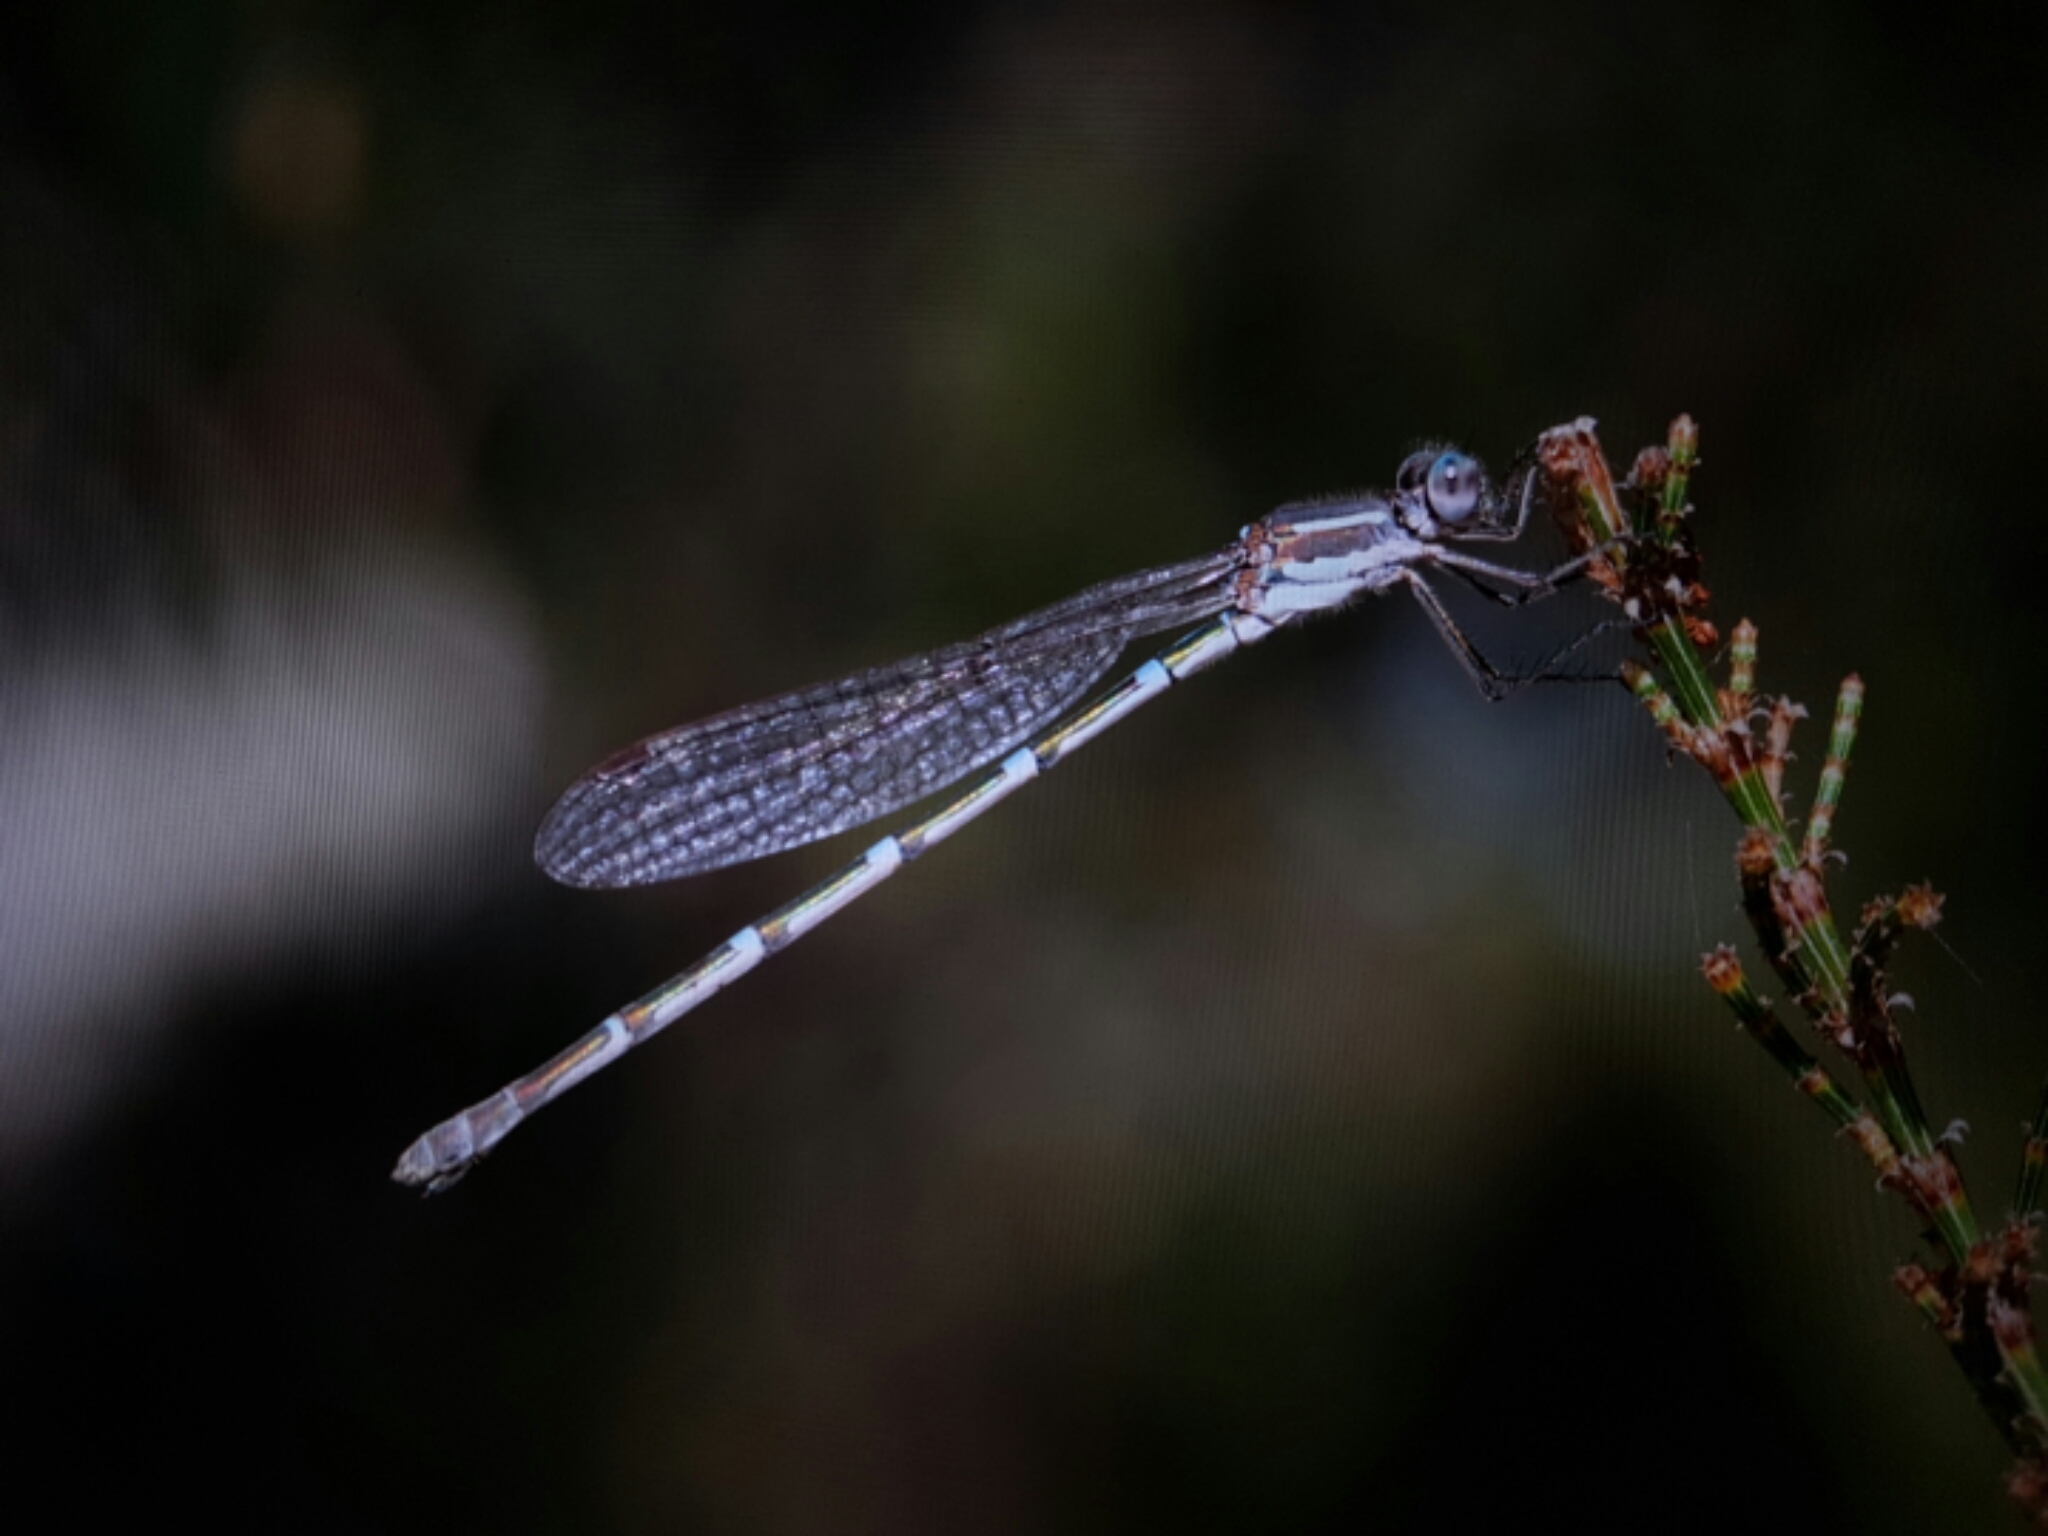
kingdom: Animalia
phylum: Arthropoda
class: Insecta
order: Odonata
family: Lestidae
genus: Austrolestes
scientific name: Austrolestes psyche
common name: Cup ringtail
